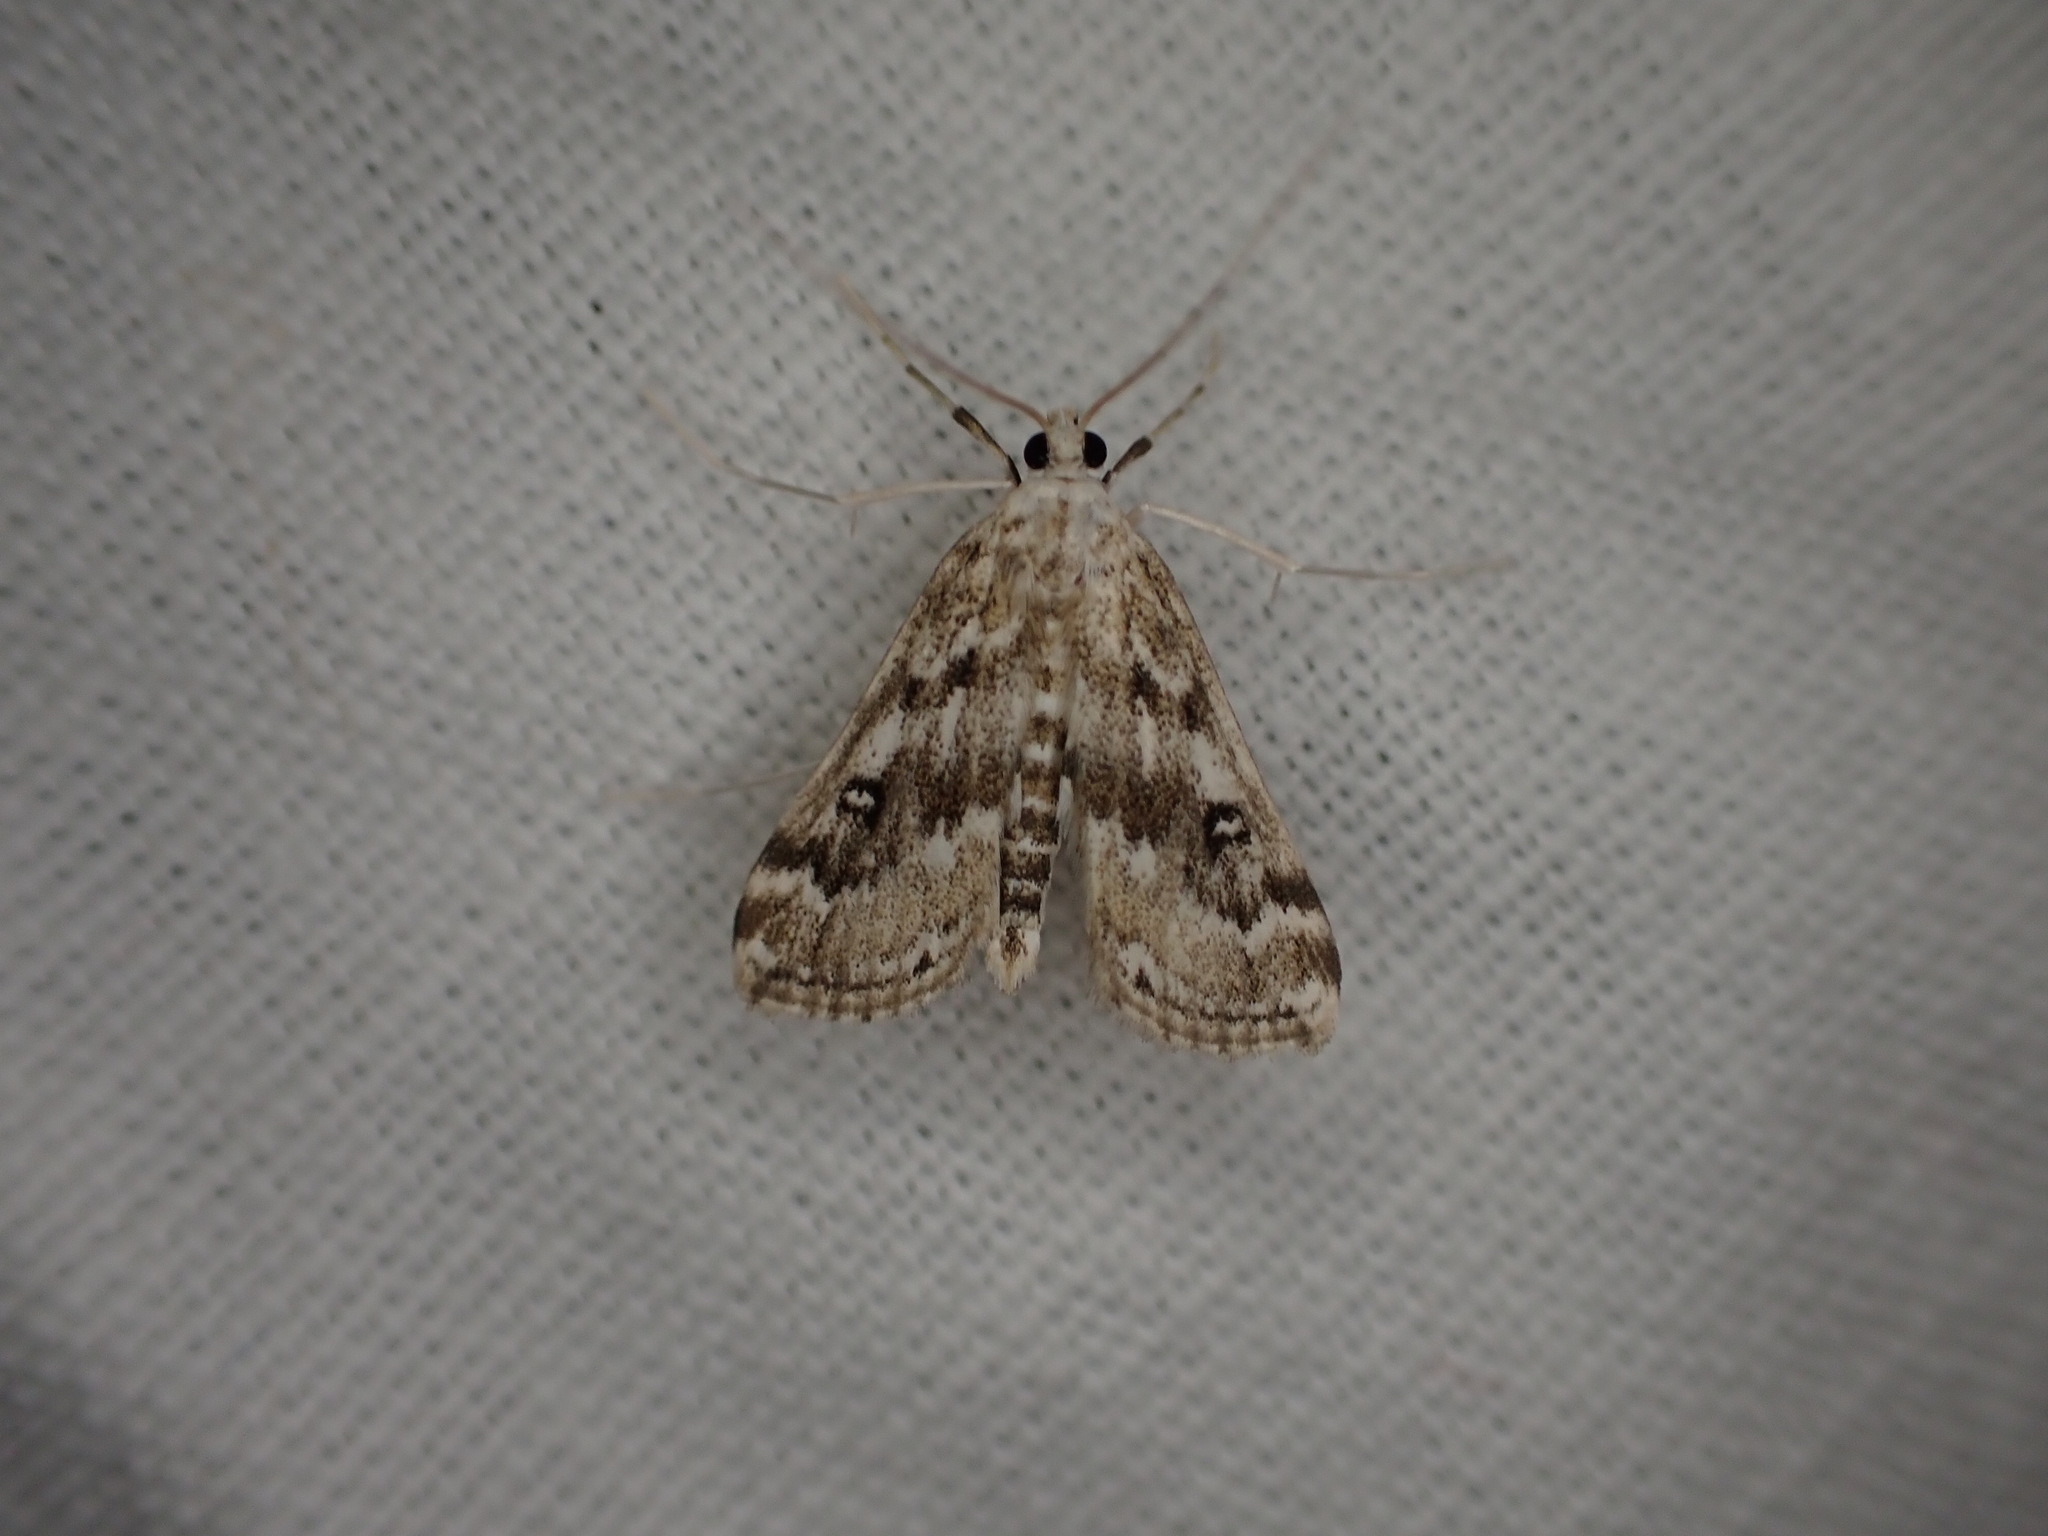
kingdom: Animalia
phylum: Arthropoda
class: Insecta
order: Lepidoptera
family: Crambidae
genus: Parapoynx
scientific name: Parapoynx stratiotata
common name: Ringed china-mark
